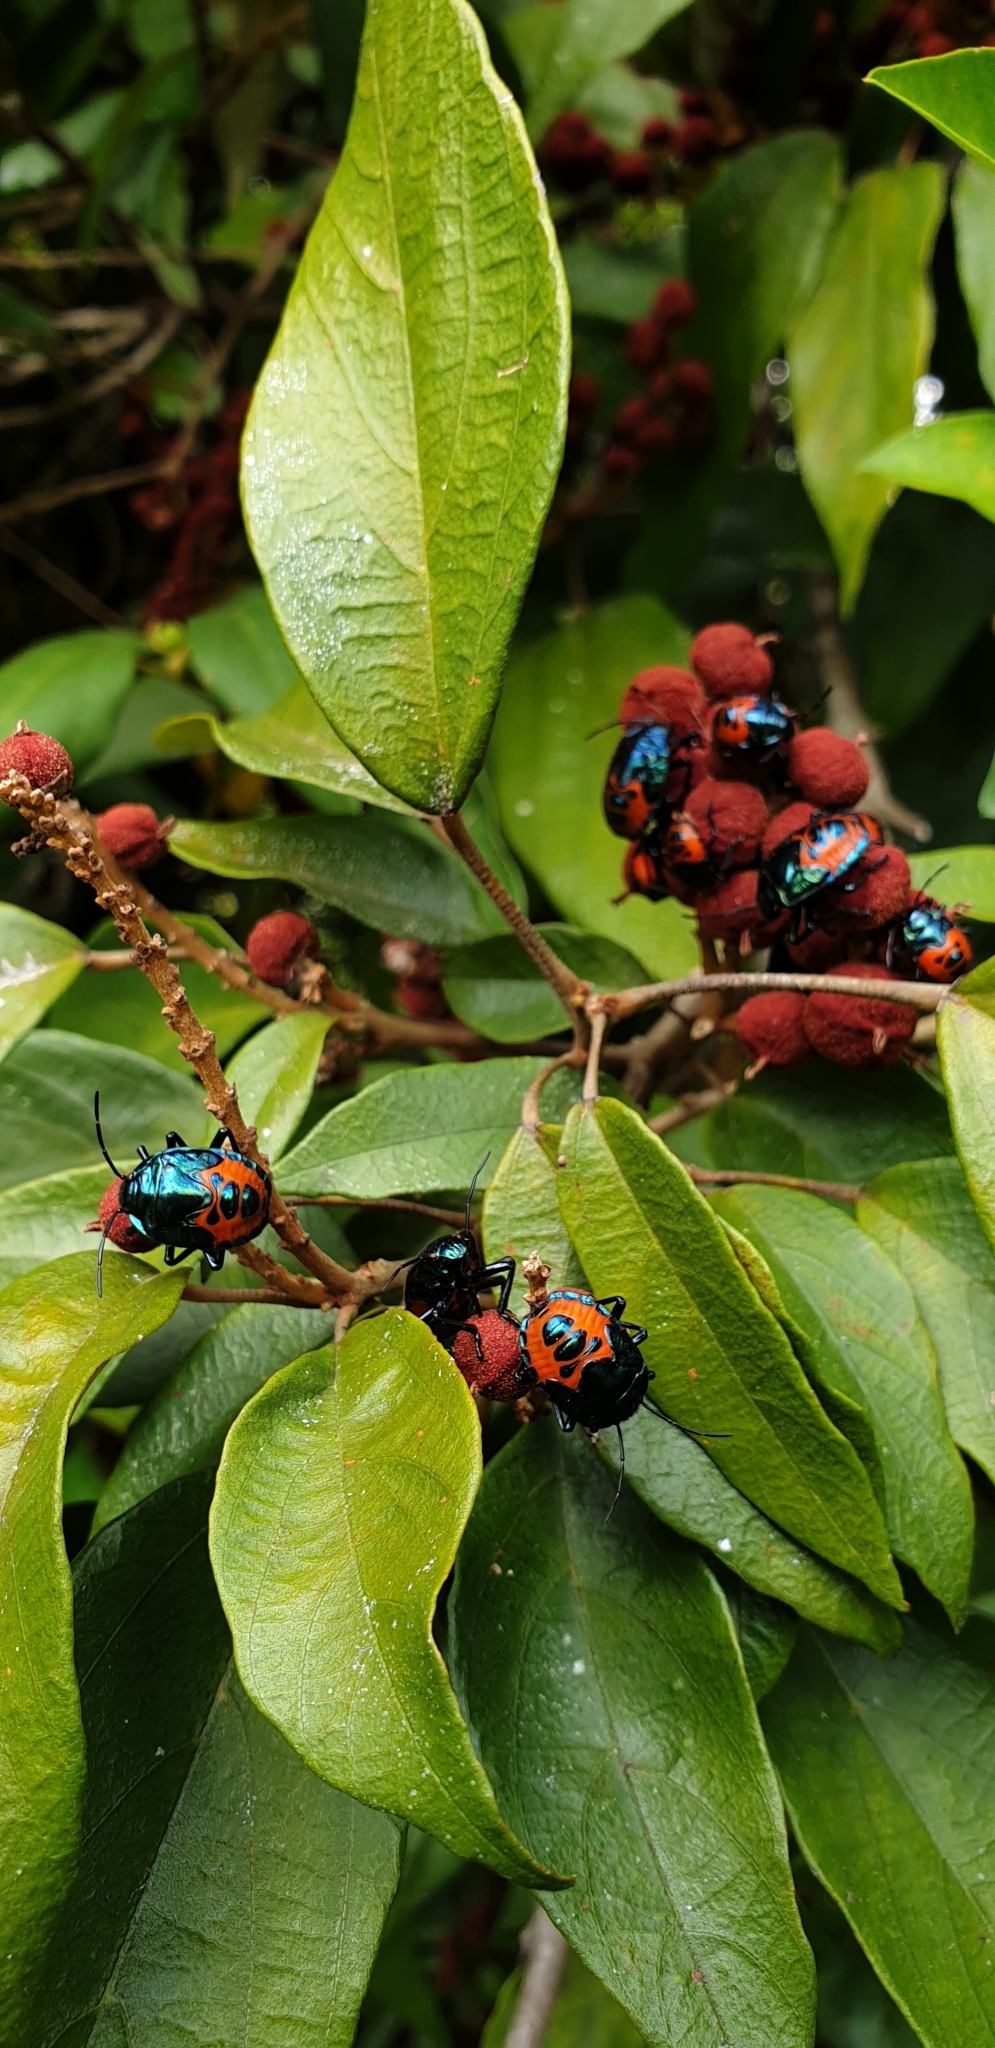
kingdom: Animalia
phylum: Arthropoda
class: Insecta
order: Hemiptera
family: Scutelleridae
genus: Cantao
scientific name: Cantao
